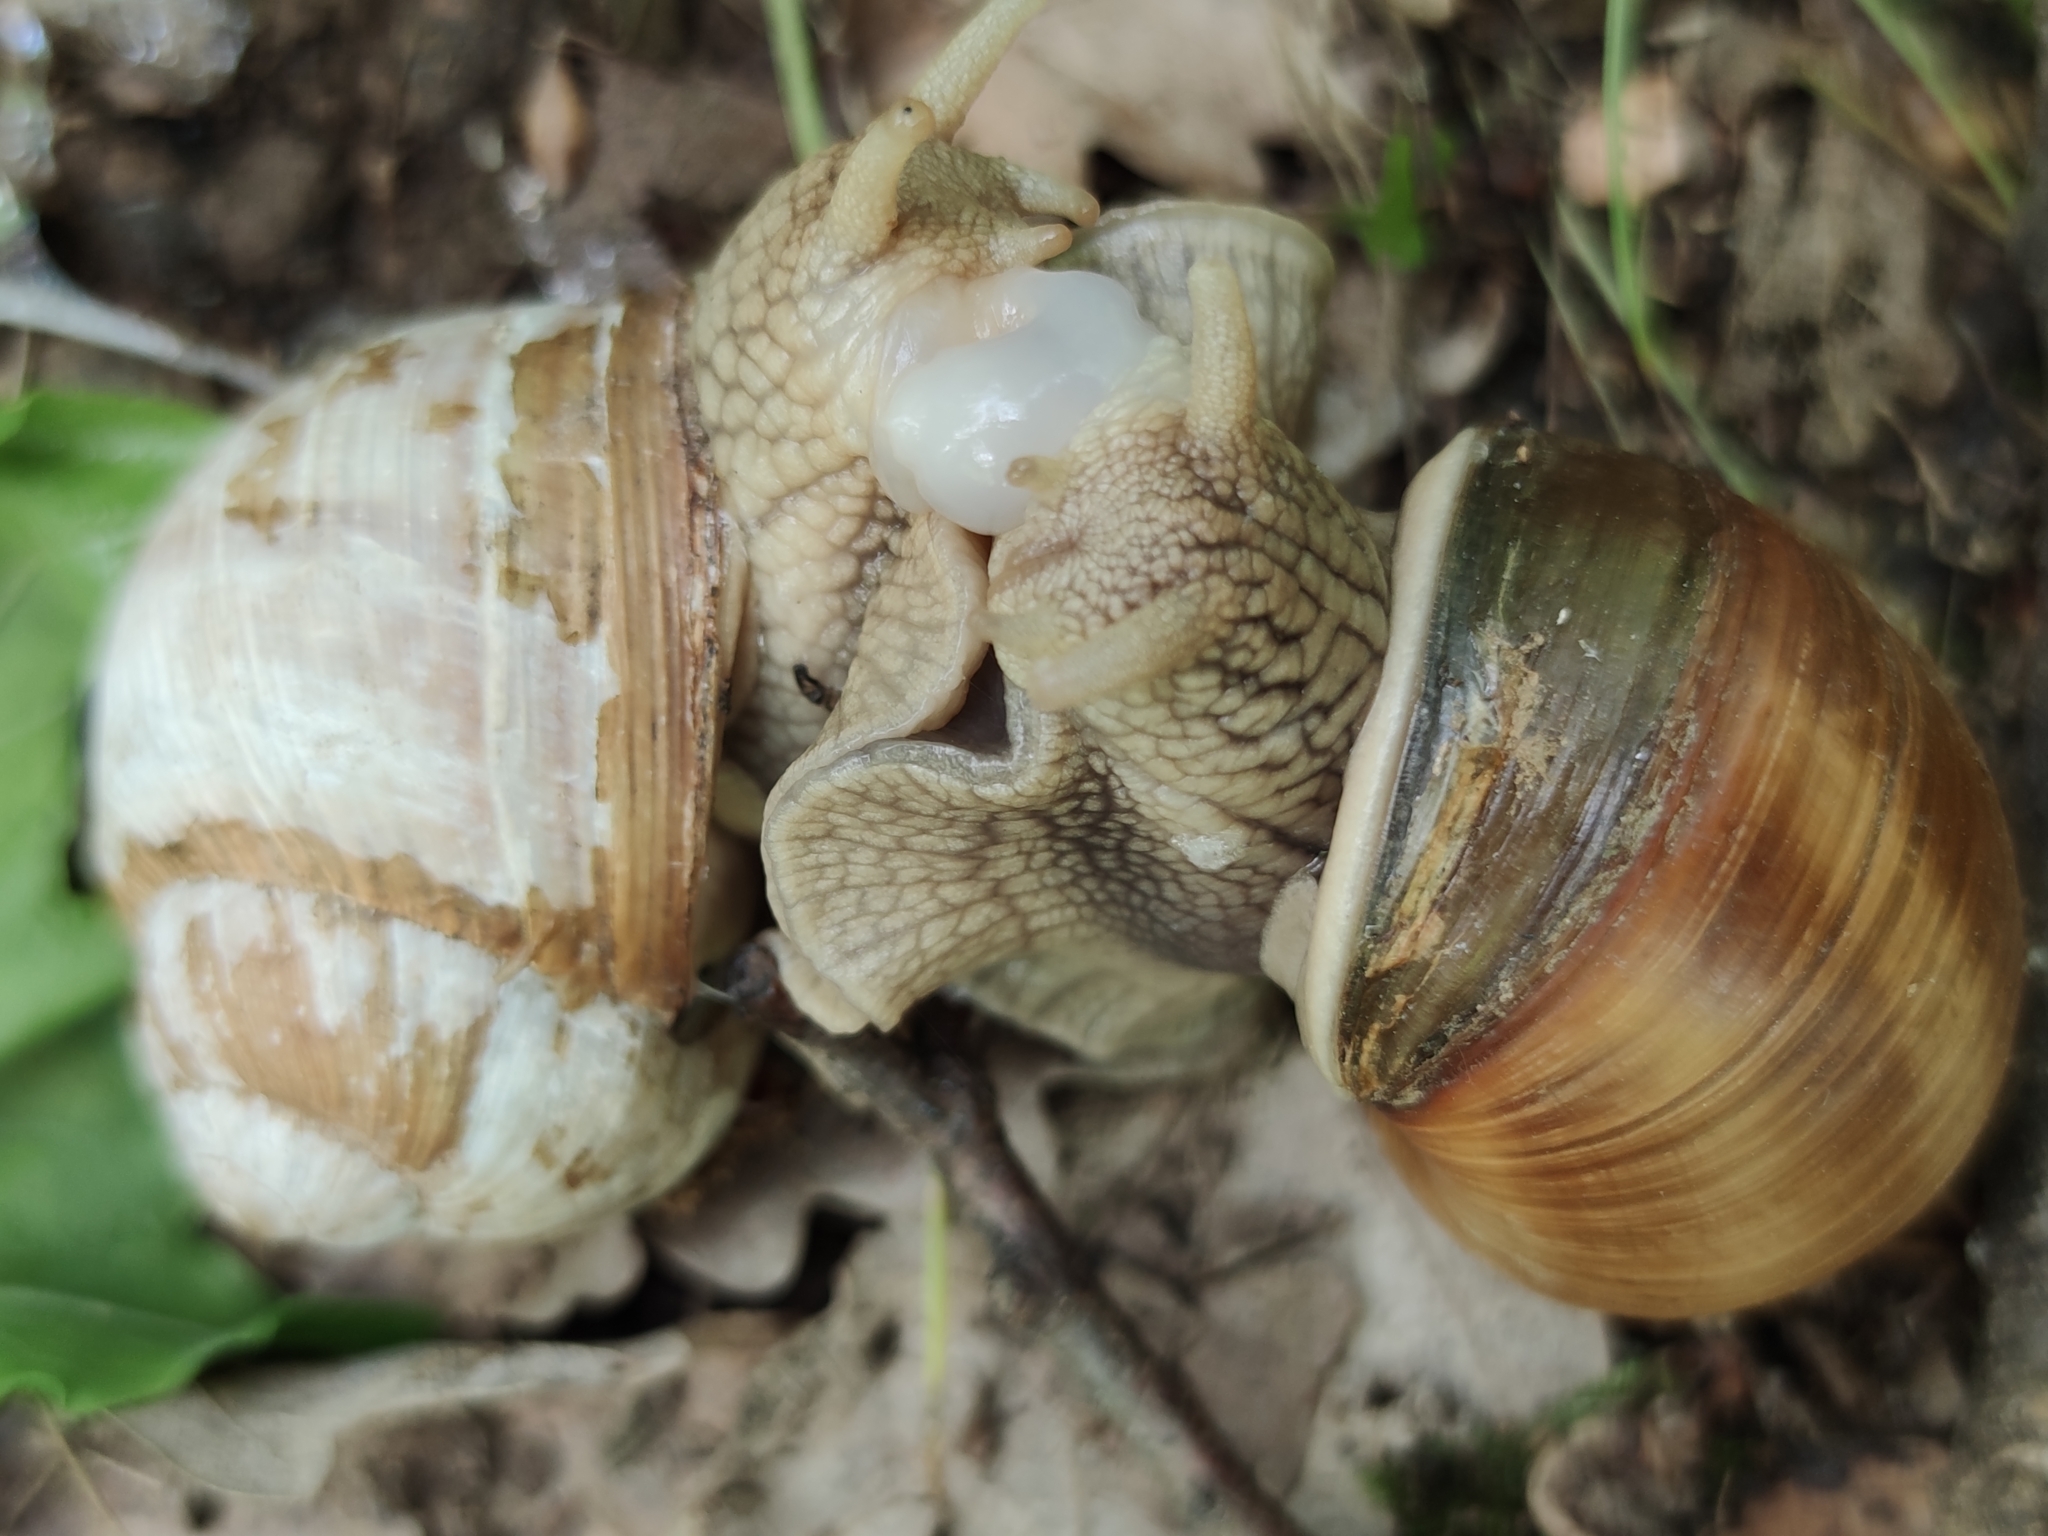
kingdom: Animalia
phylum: Mollusca
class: Gastropoda
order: Stylommatophora
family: Helicidae
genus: Helix
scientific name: Helix pomatia
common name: Roman snail
